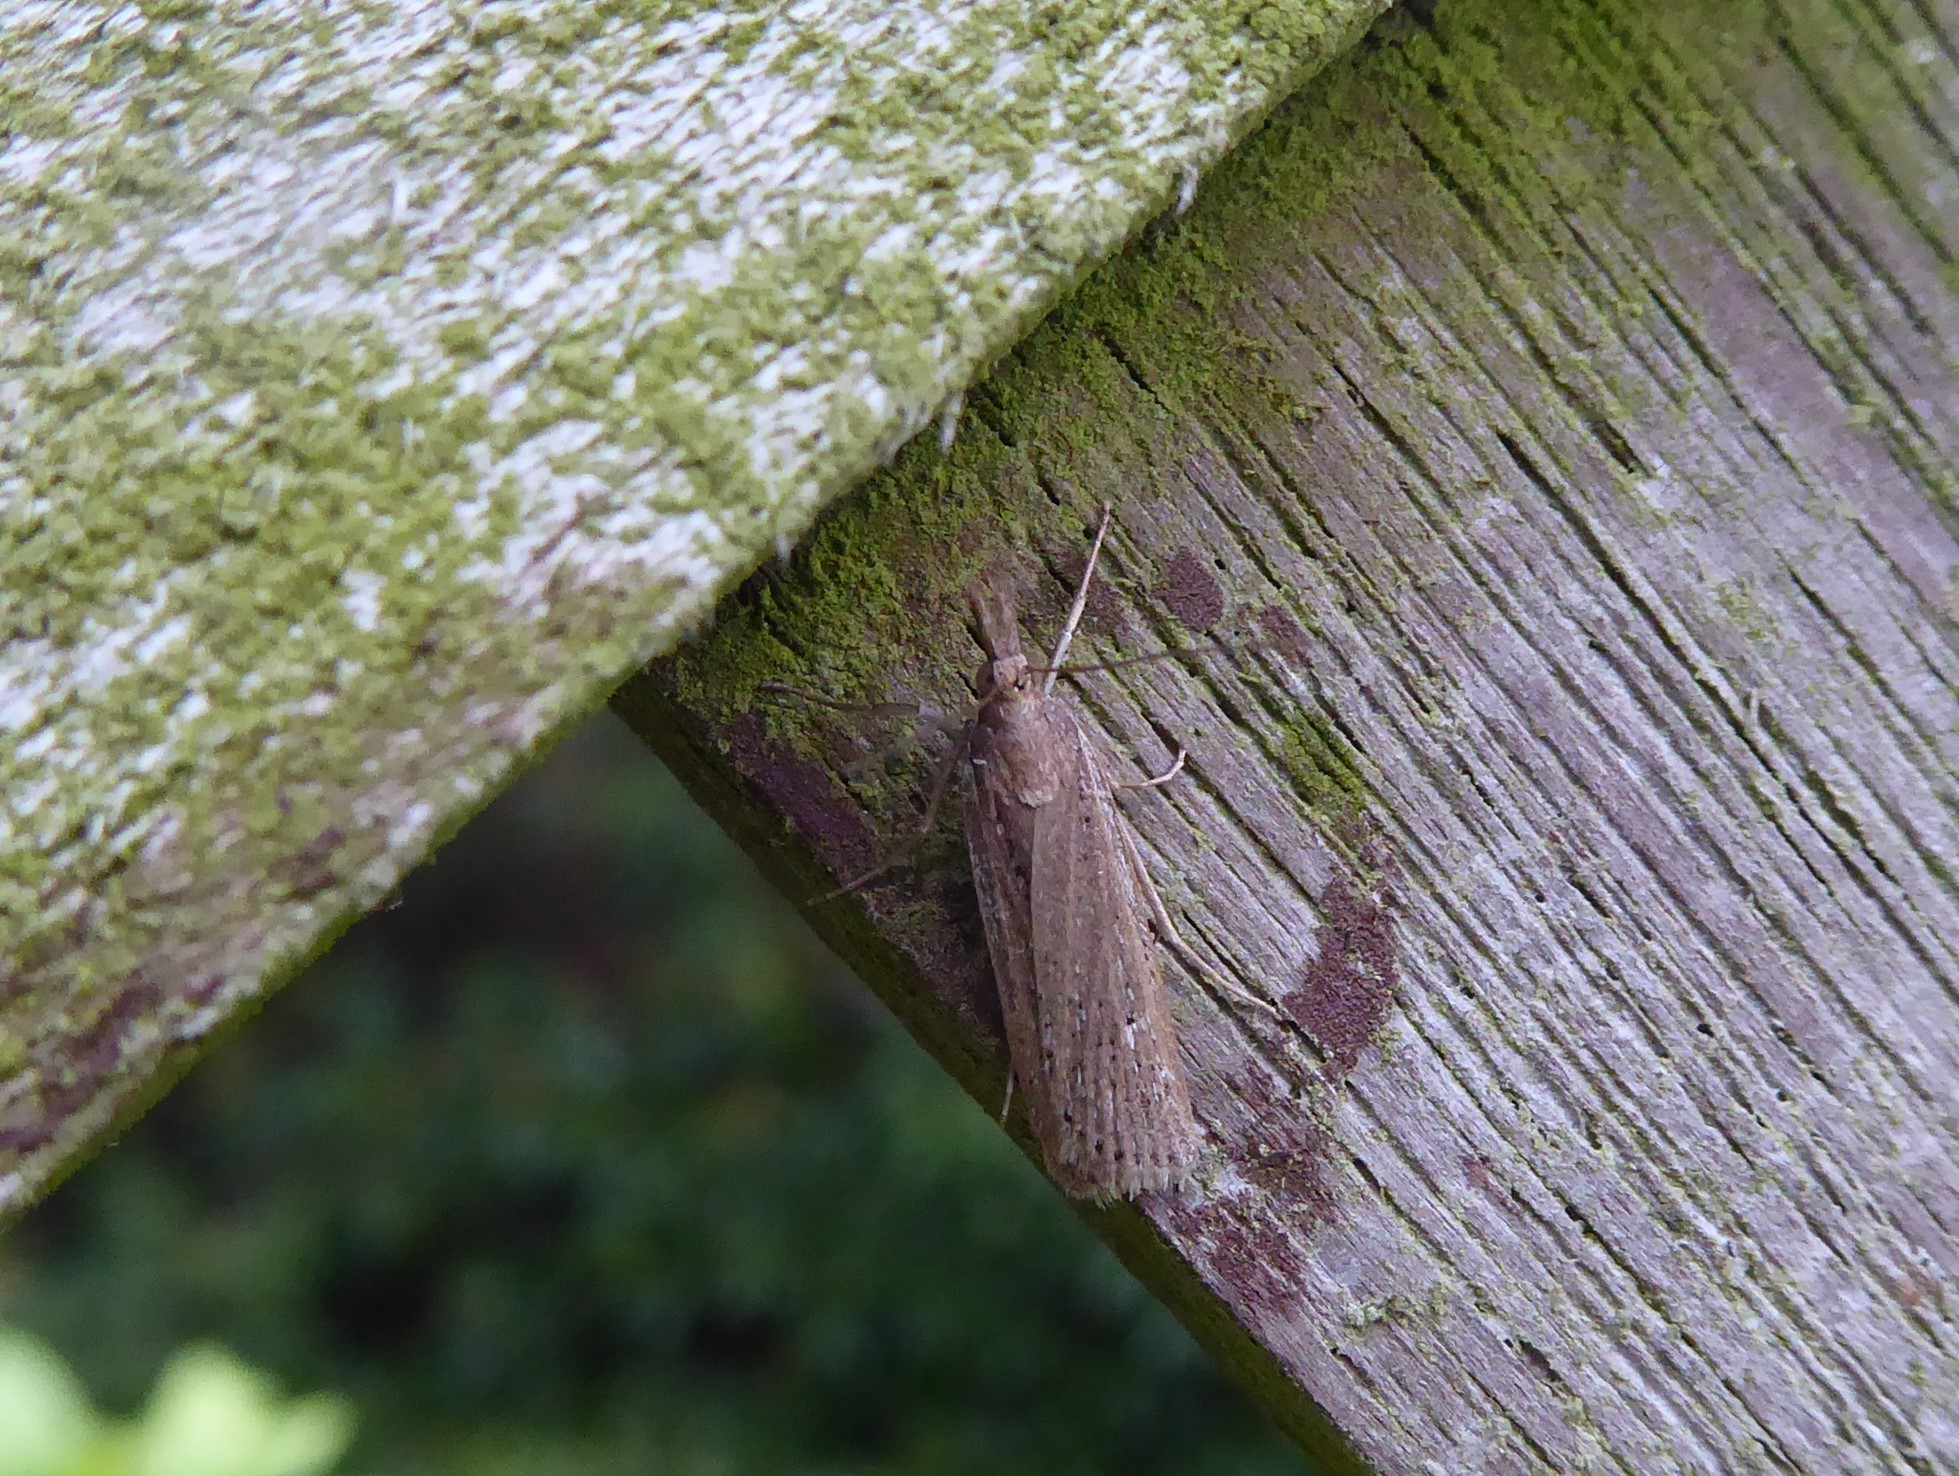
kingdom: Animalia
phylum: Arthropoda
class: Insecta
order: Lepidoptera
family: Crambidae
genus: Eudonia
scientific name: Eudonia sabulosella
